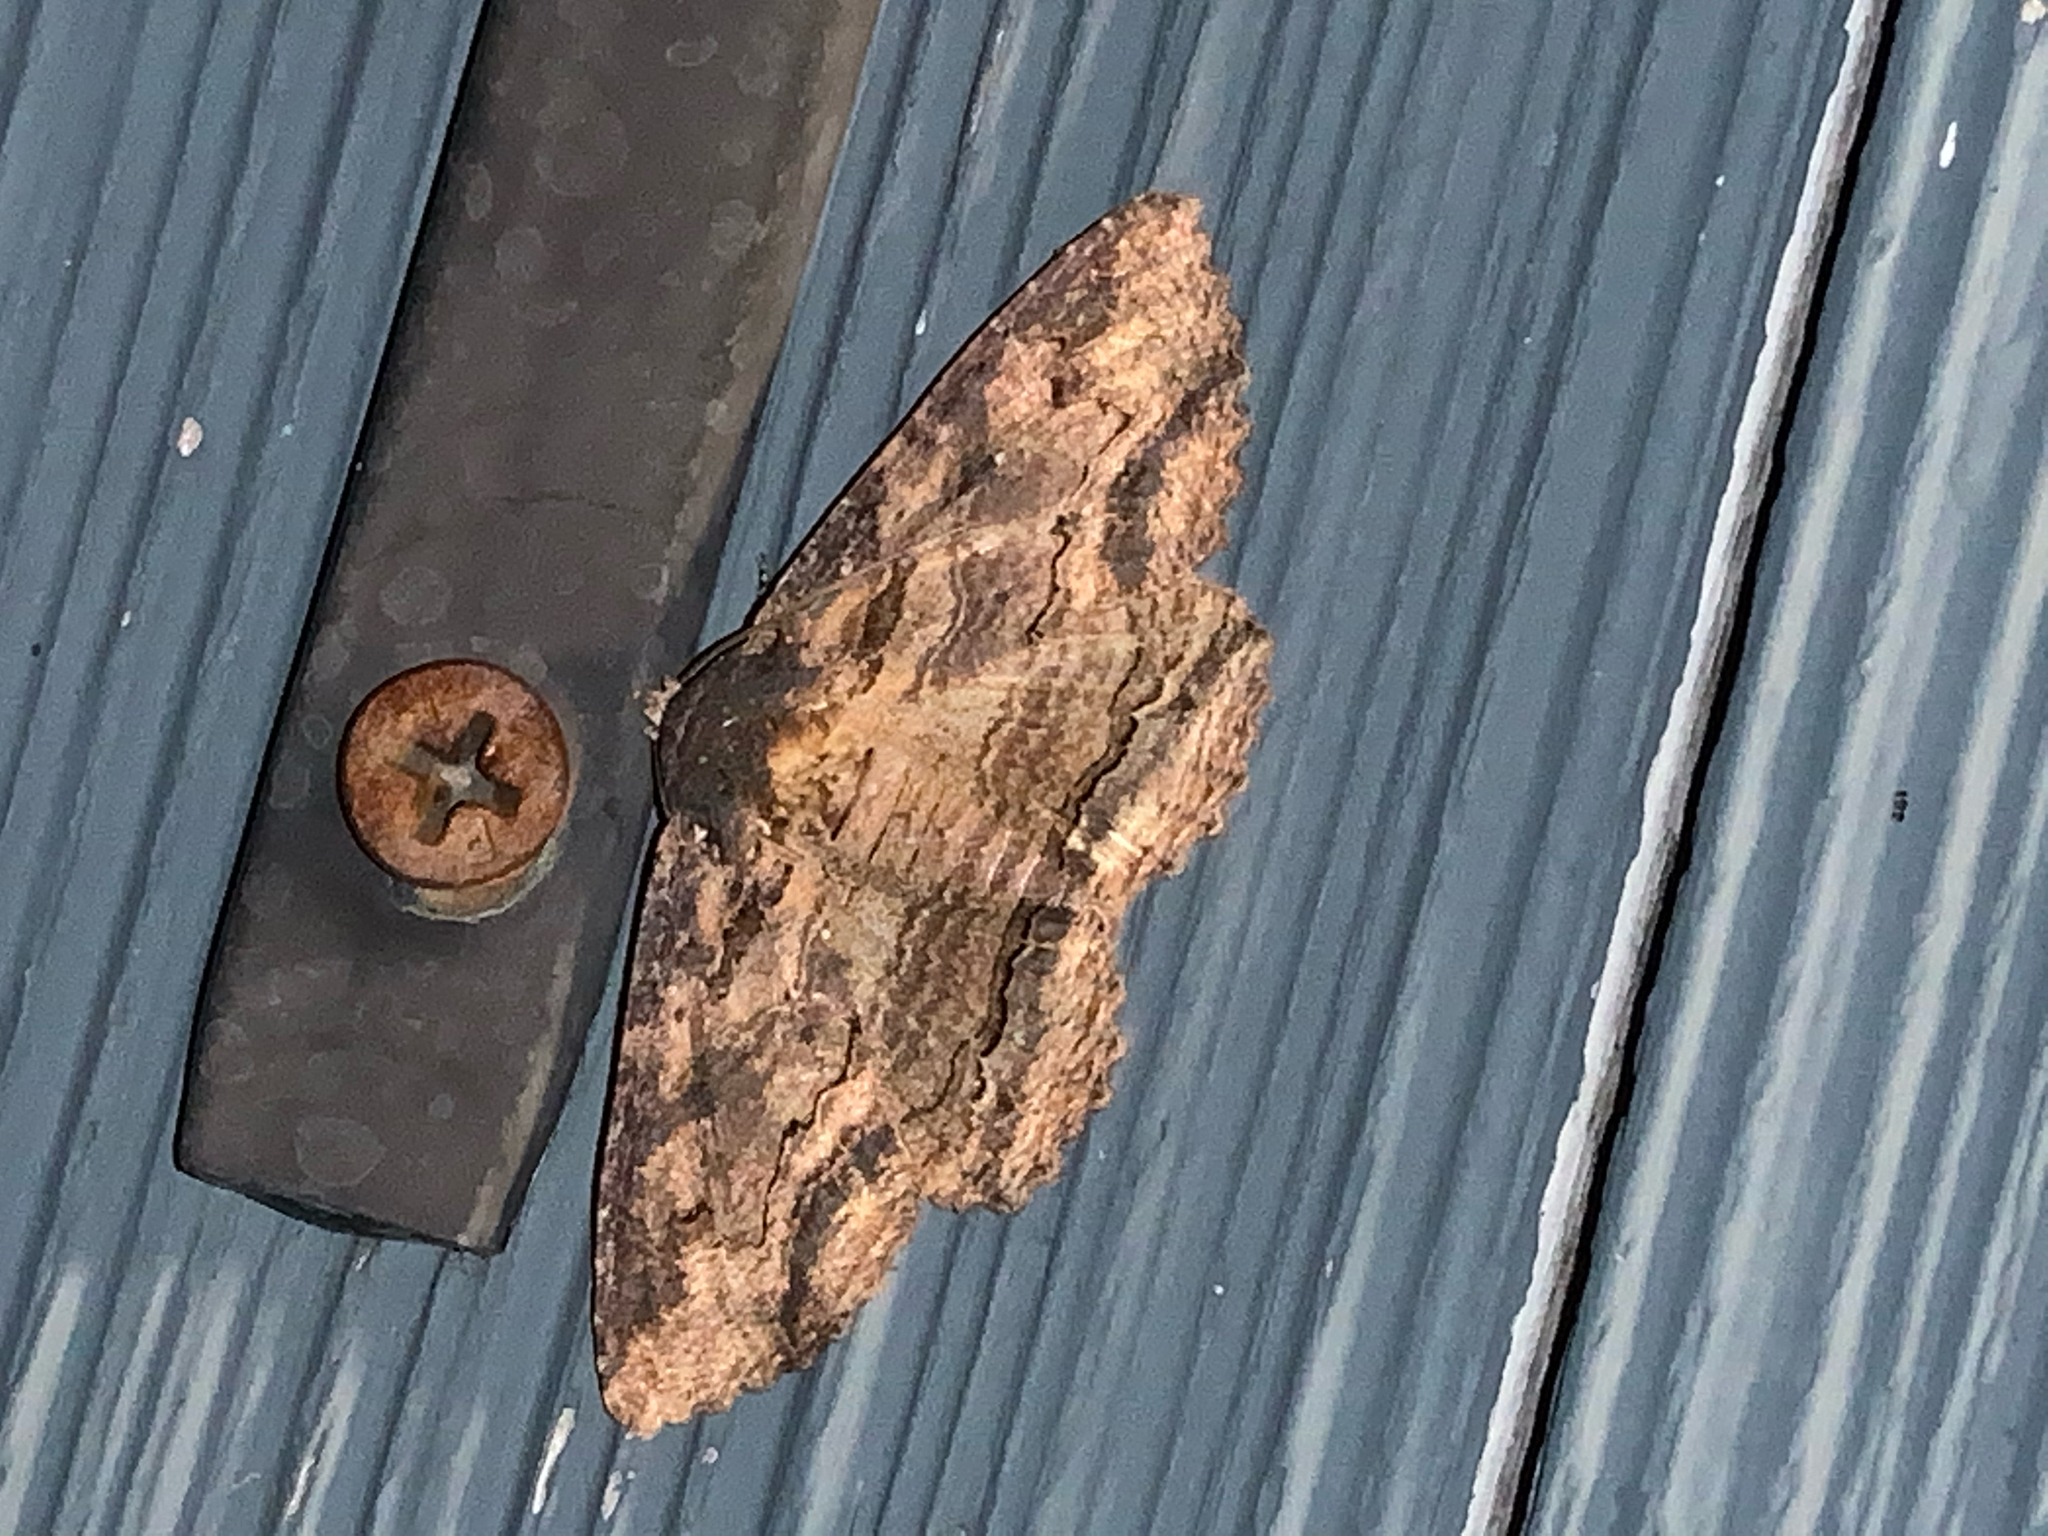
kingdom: Animalia
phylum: Arthropoda
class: Insecta
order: Lepidoptera
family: Erebidae
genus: Zale
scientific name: Zale lunata
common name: Lunate zale moth
